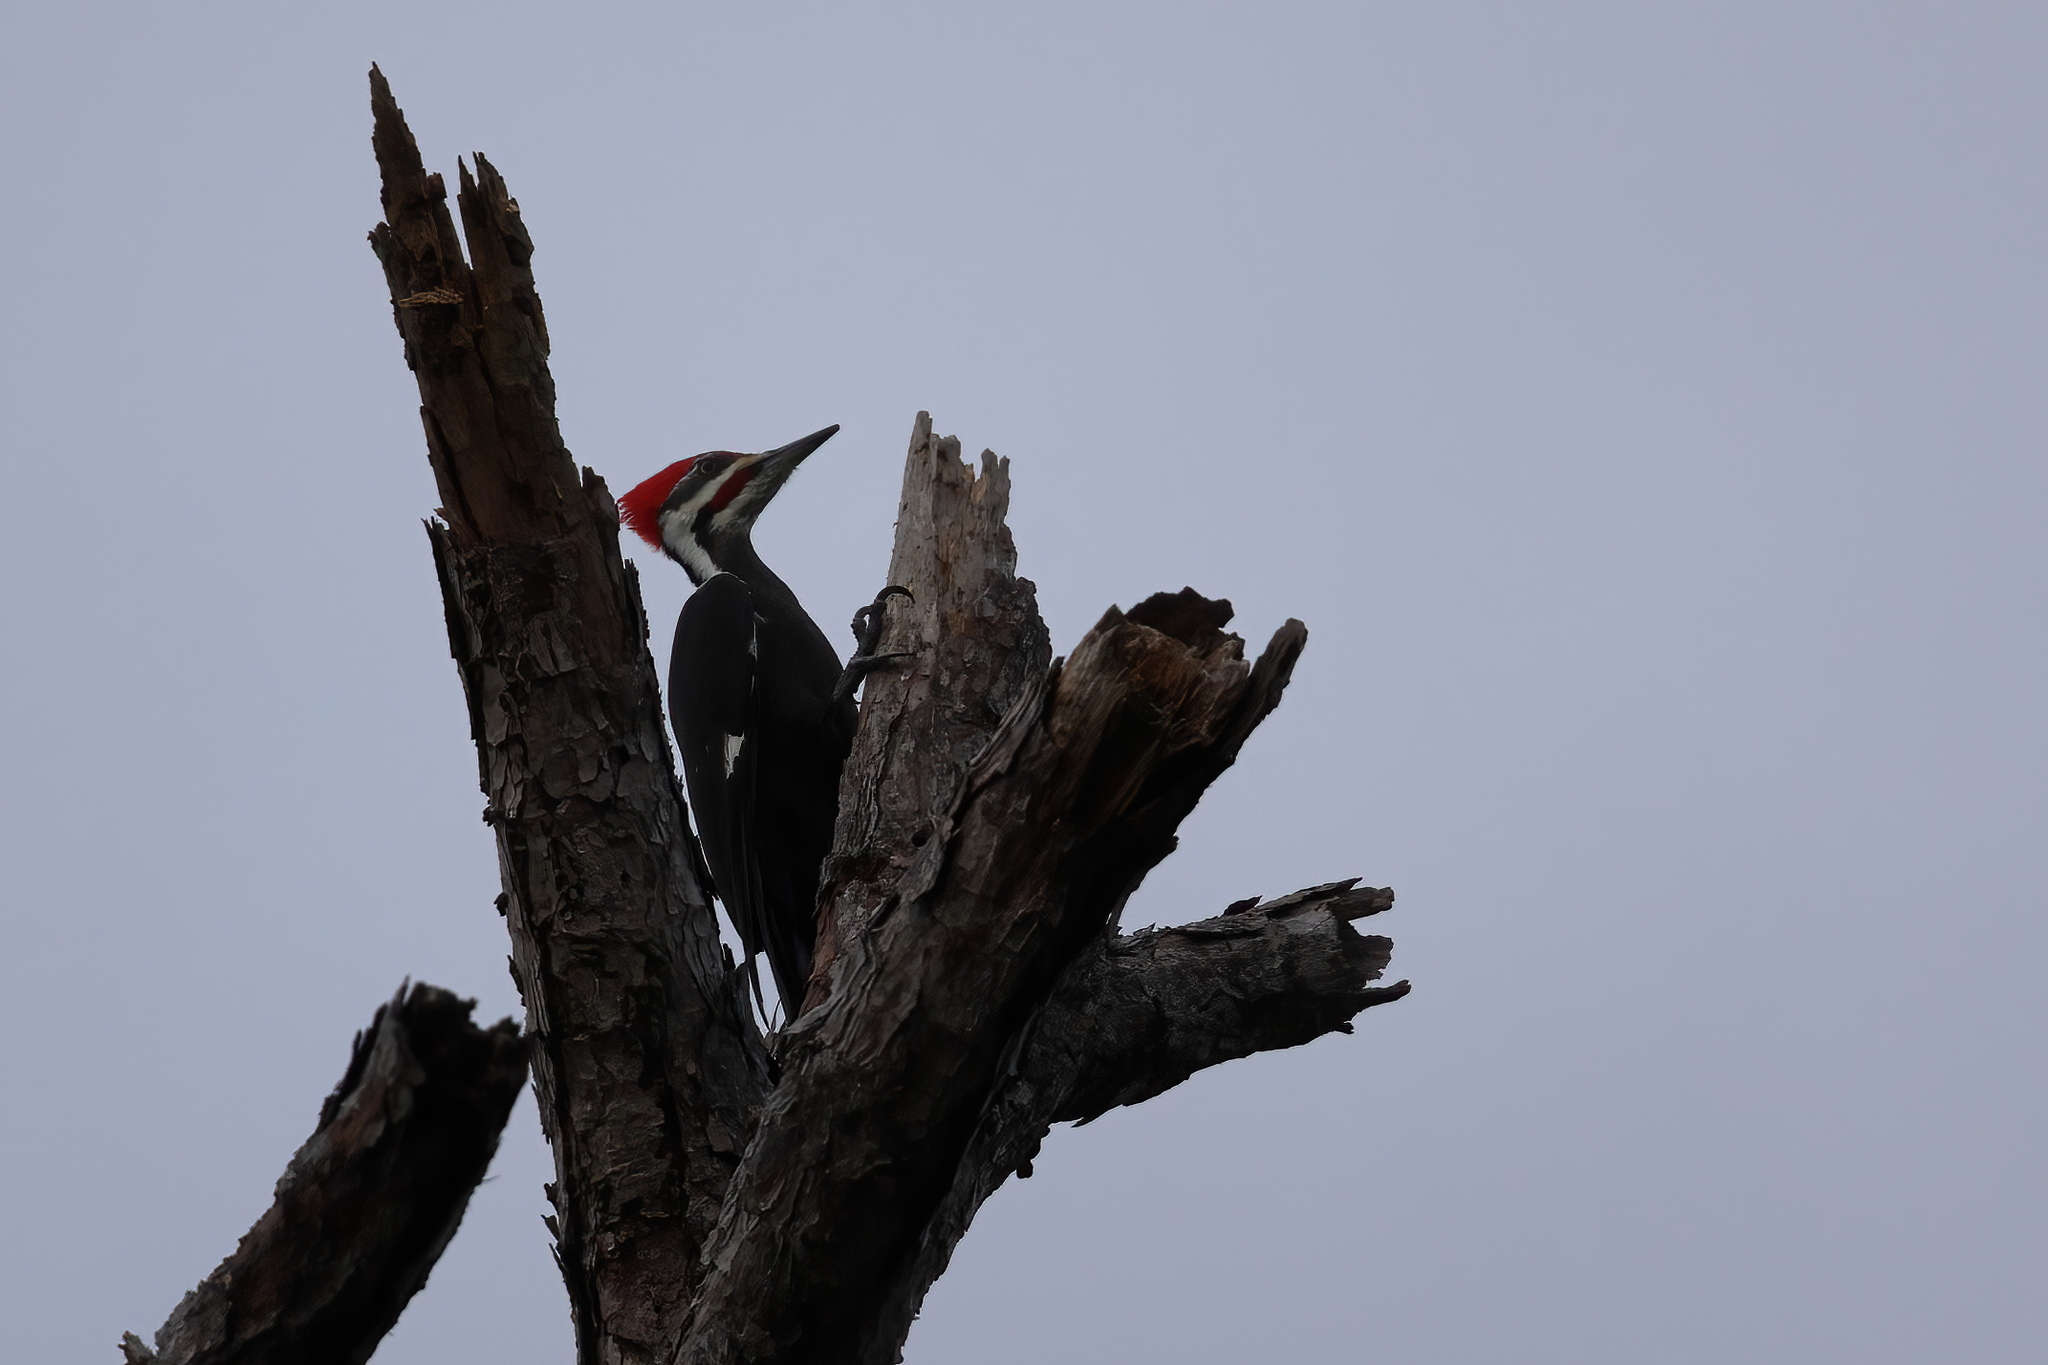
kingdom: Animalia
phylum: Chordata
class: Aves
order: Piciformes
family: Picidae
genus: Dryocopus
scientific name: Dryocopus pileatus
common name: Pileated woodpecker
